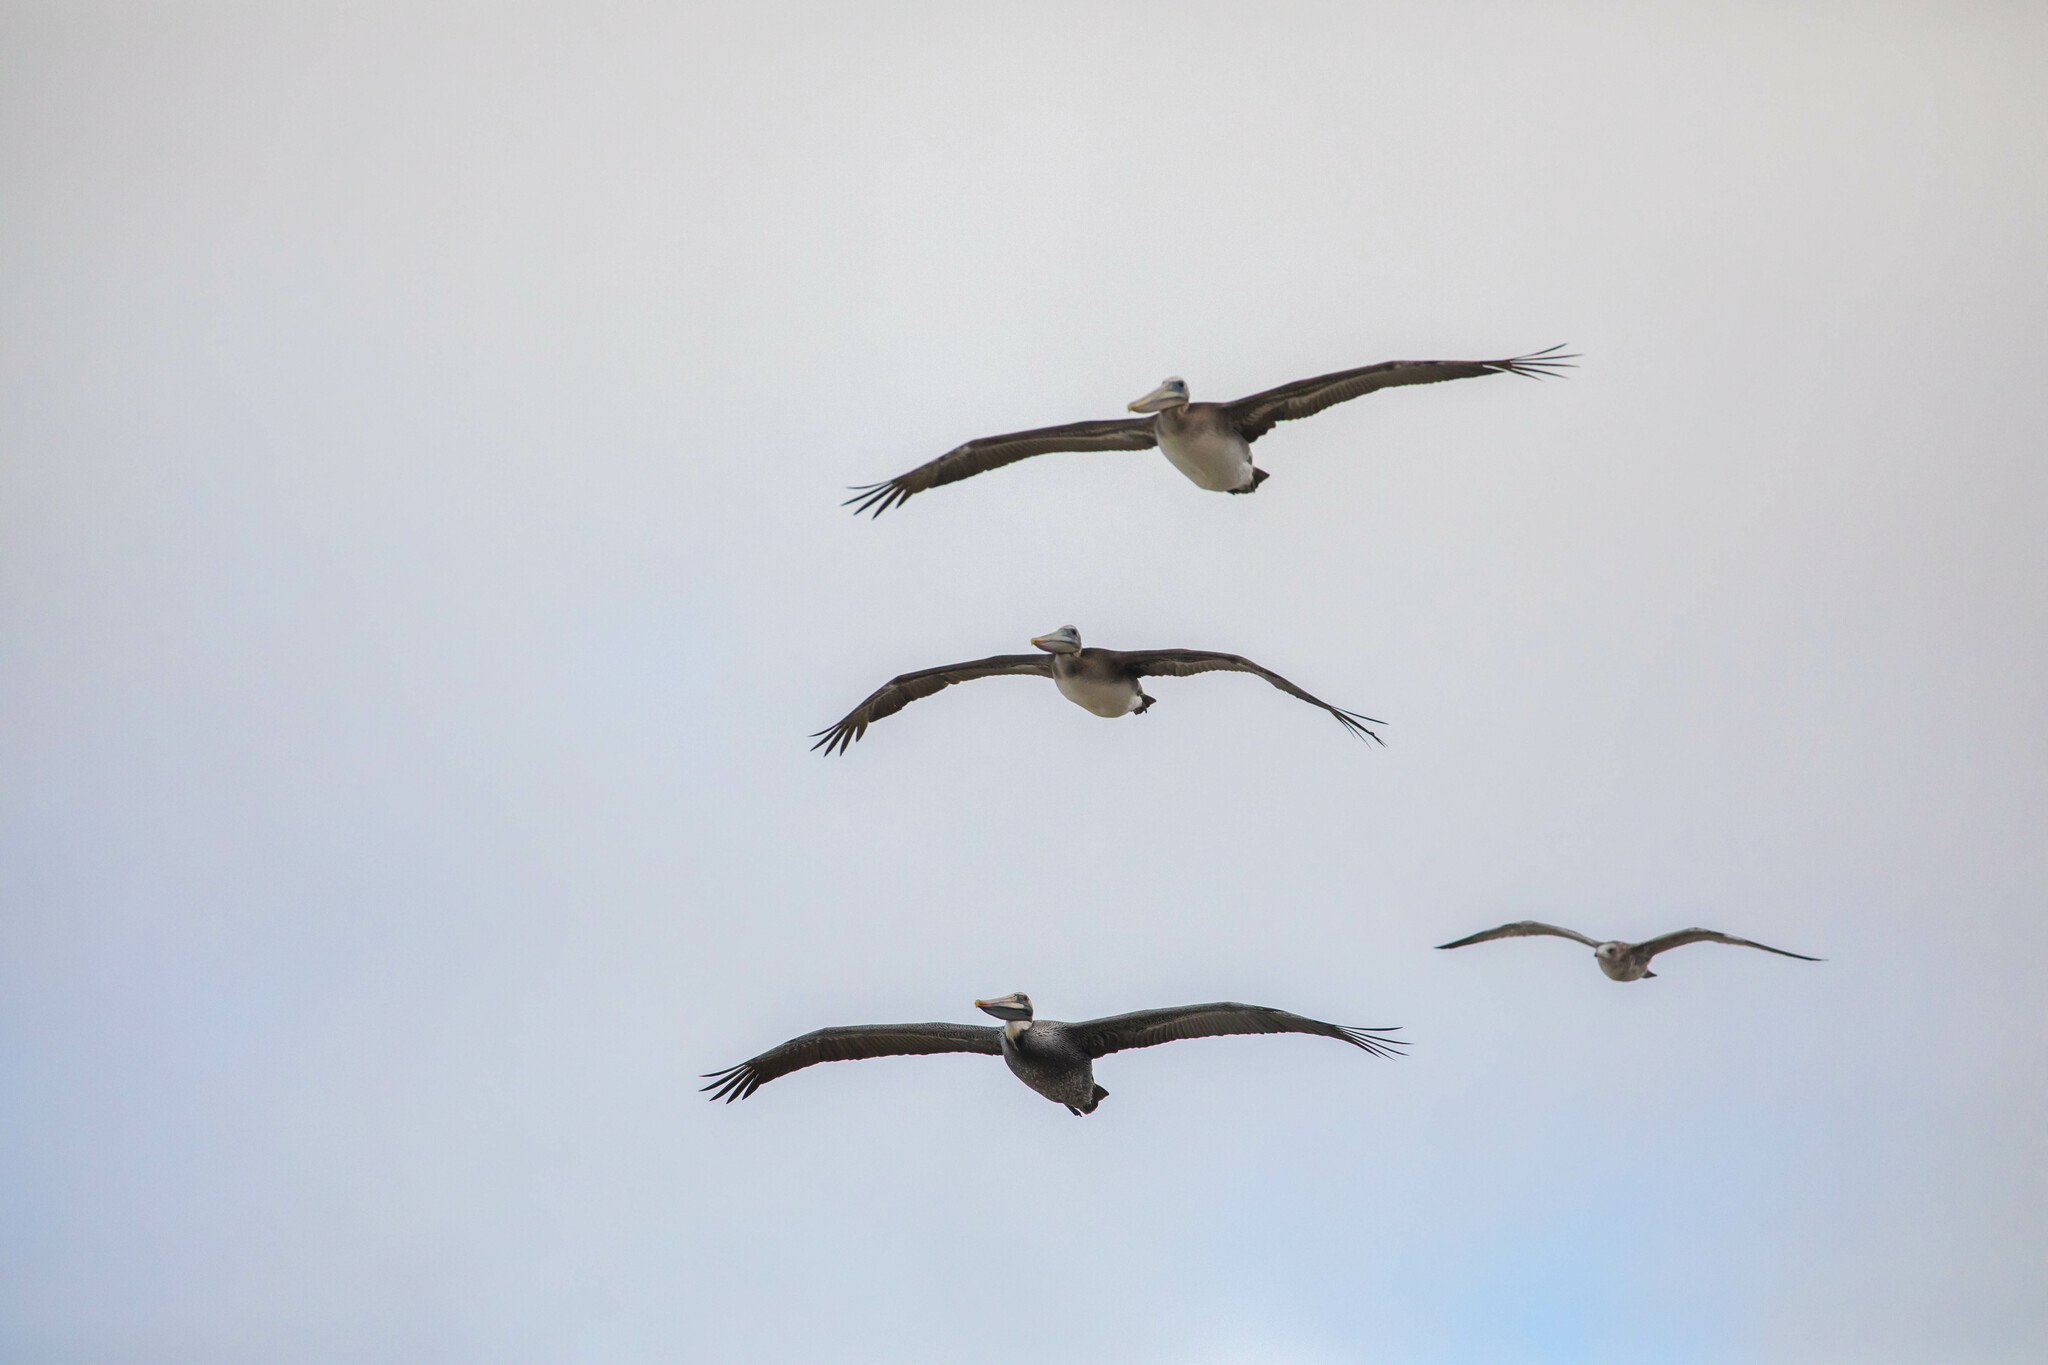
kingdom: Animalia
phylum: Chordata
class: Aves
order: Pelecaniformes
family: Pelecanidae
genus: Pelecanus
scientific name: Pelecanus occidentalis
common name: Brown pelican
